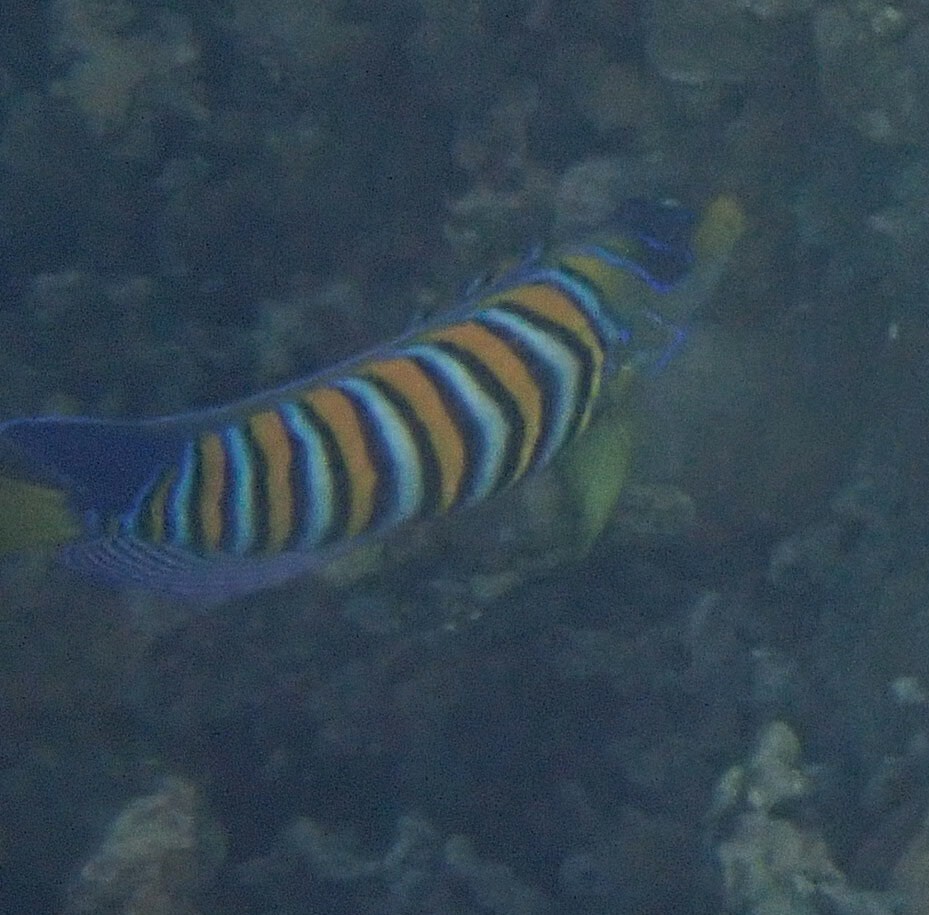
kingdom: Animalia
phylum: Chordata
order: Perciformes
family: Pomacanthidae
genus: Pygoplites
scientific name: Pygoplites diacanthus
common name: Regal angelfish
